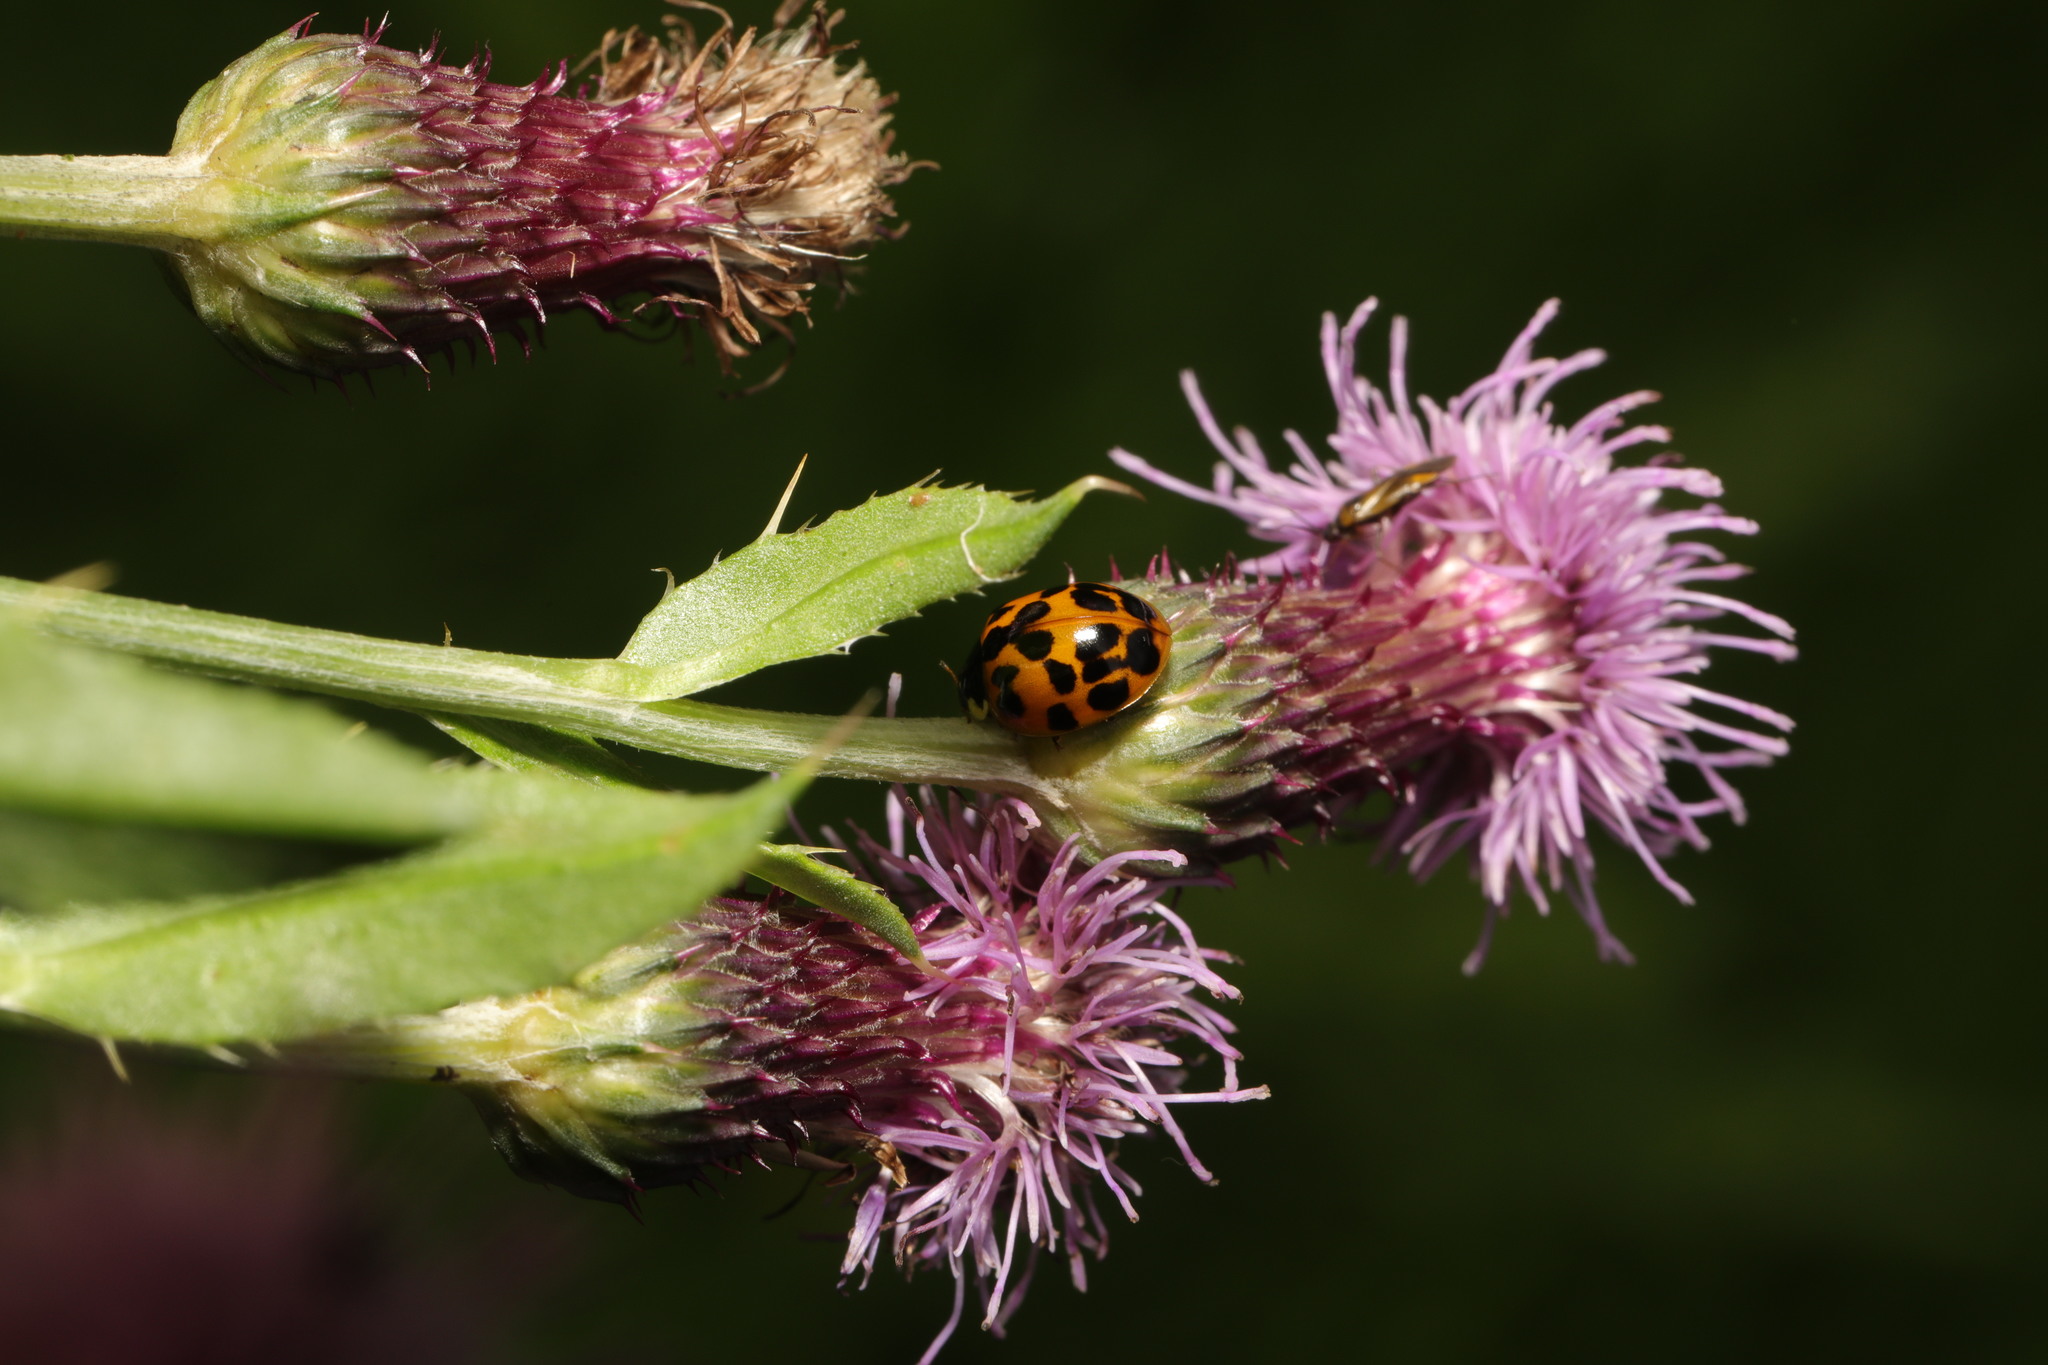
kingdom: Animalia
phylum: Arthropoda
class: Insecta
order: Coleoptera
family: Coccinellidae
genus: Harmonia
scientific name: Harmonia axyridis
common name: Harlequin ladybird
